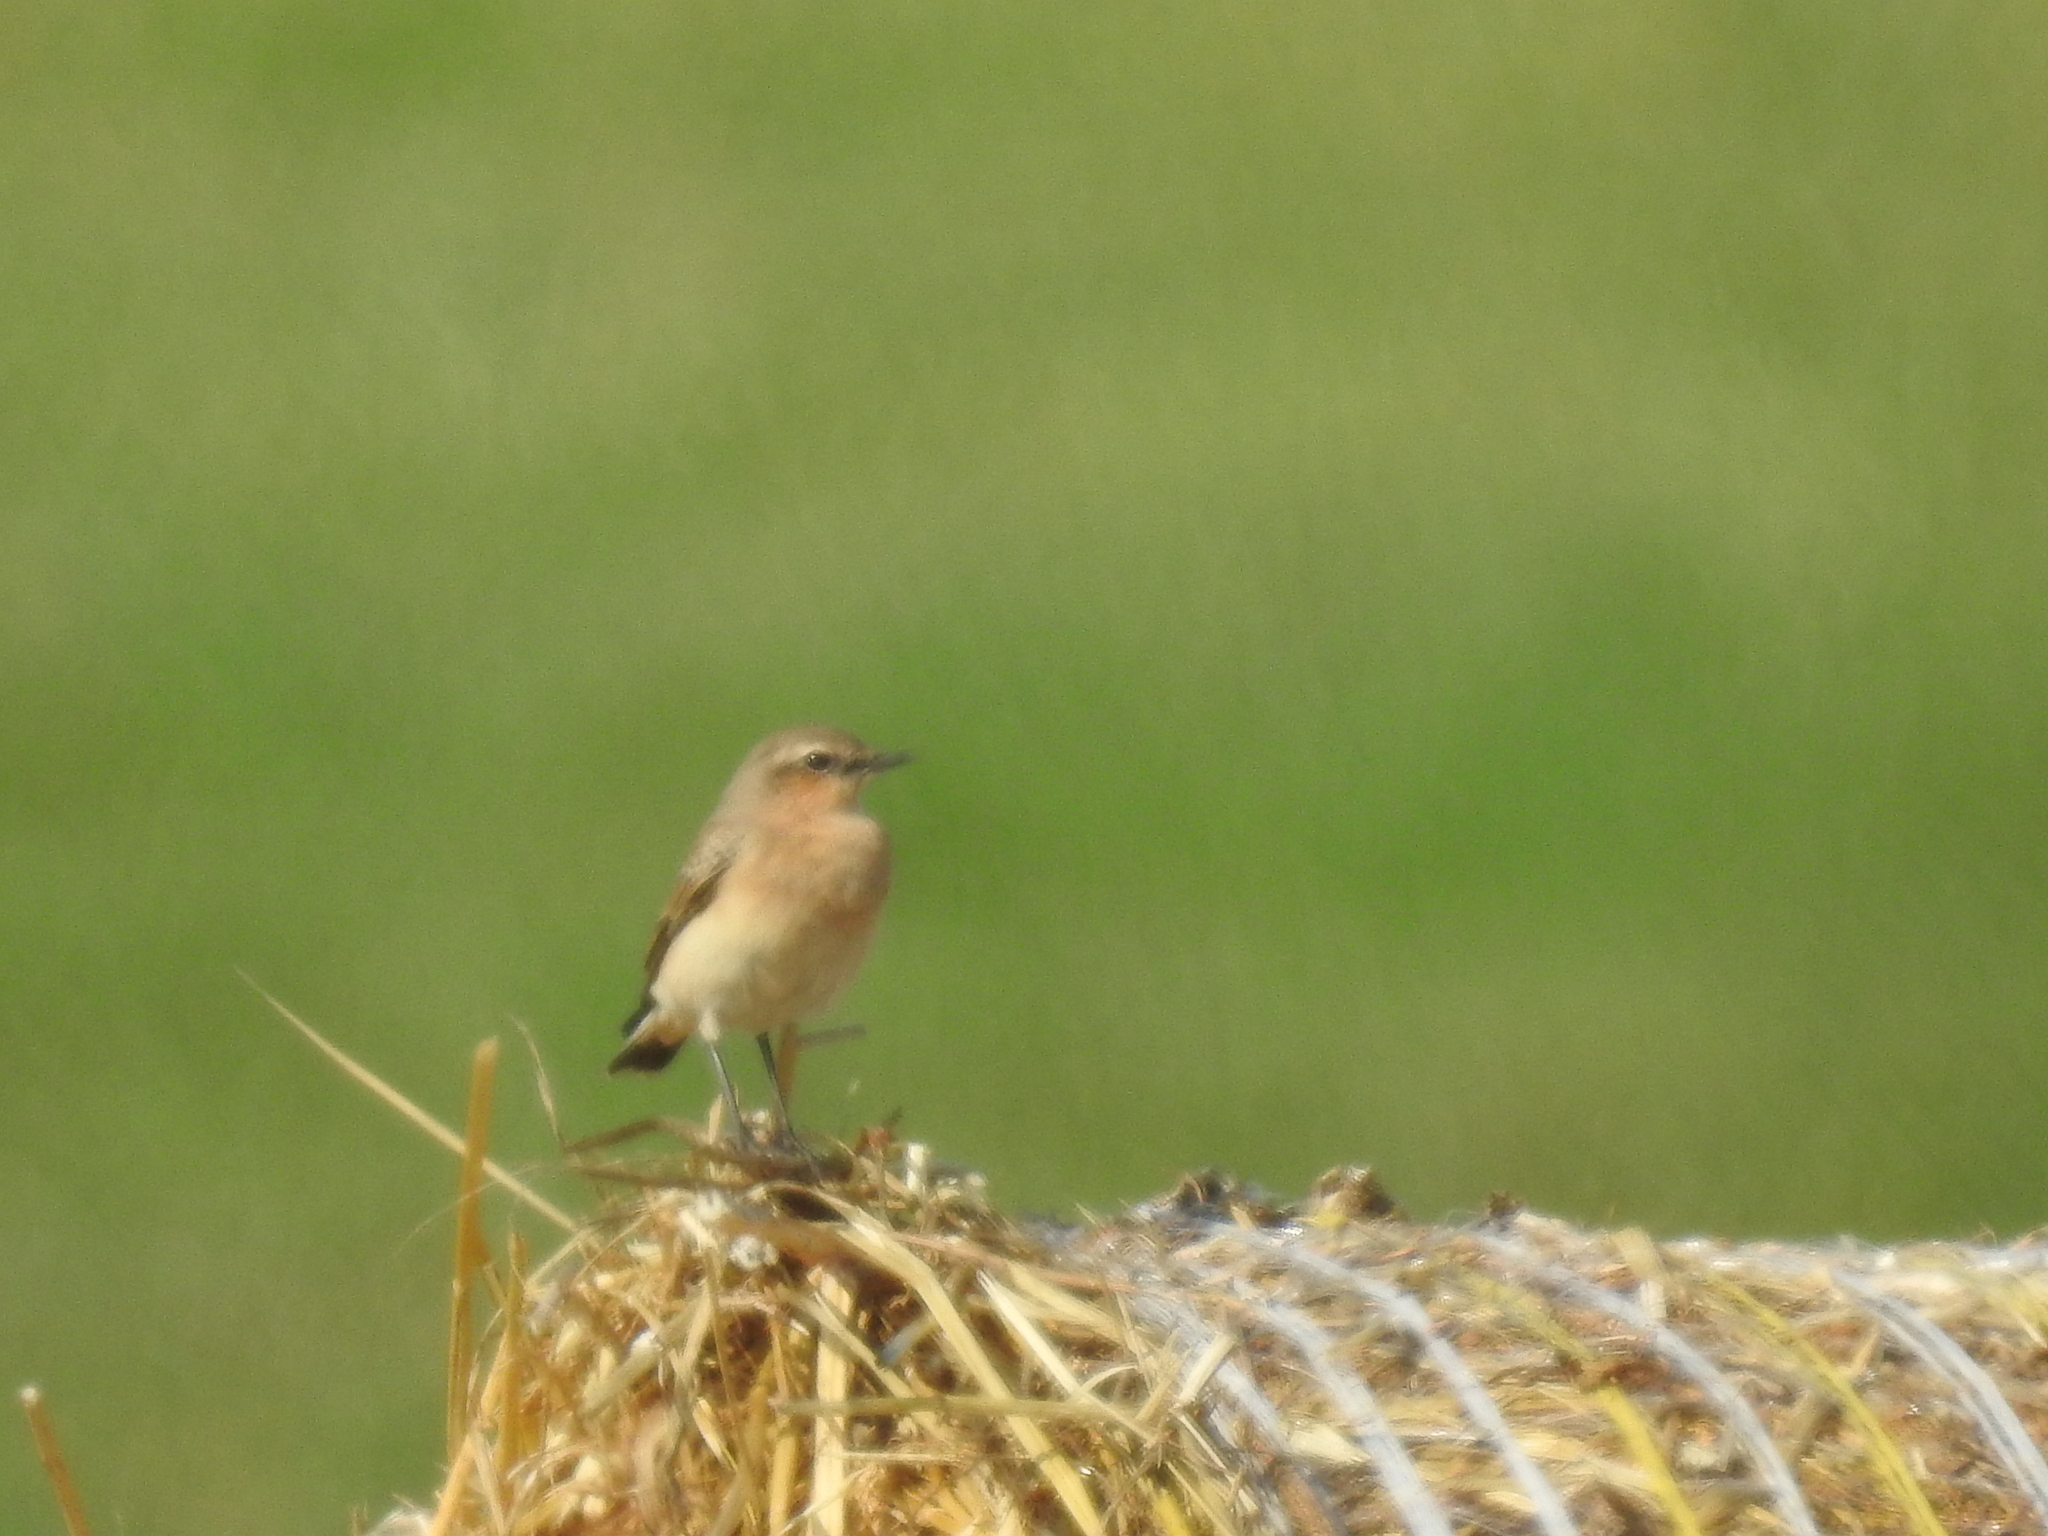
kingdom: Animalia
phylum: Chordata
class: Aves
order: Passeriformes
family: Muscicapidae
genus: Oenanthe
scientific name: Oenanthe oenanthe
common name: Northern wheatear
